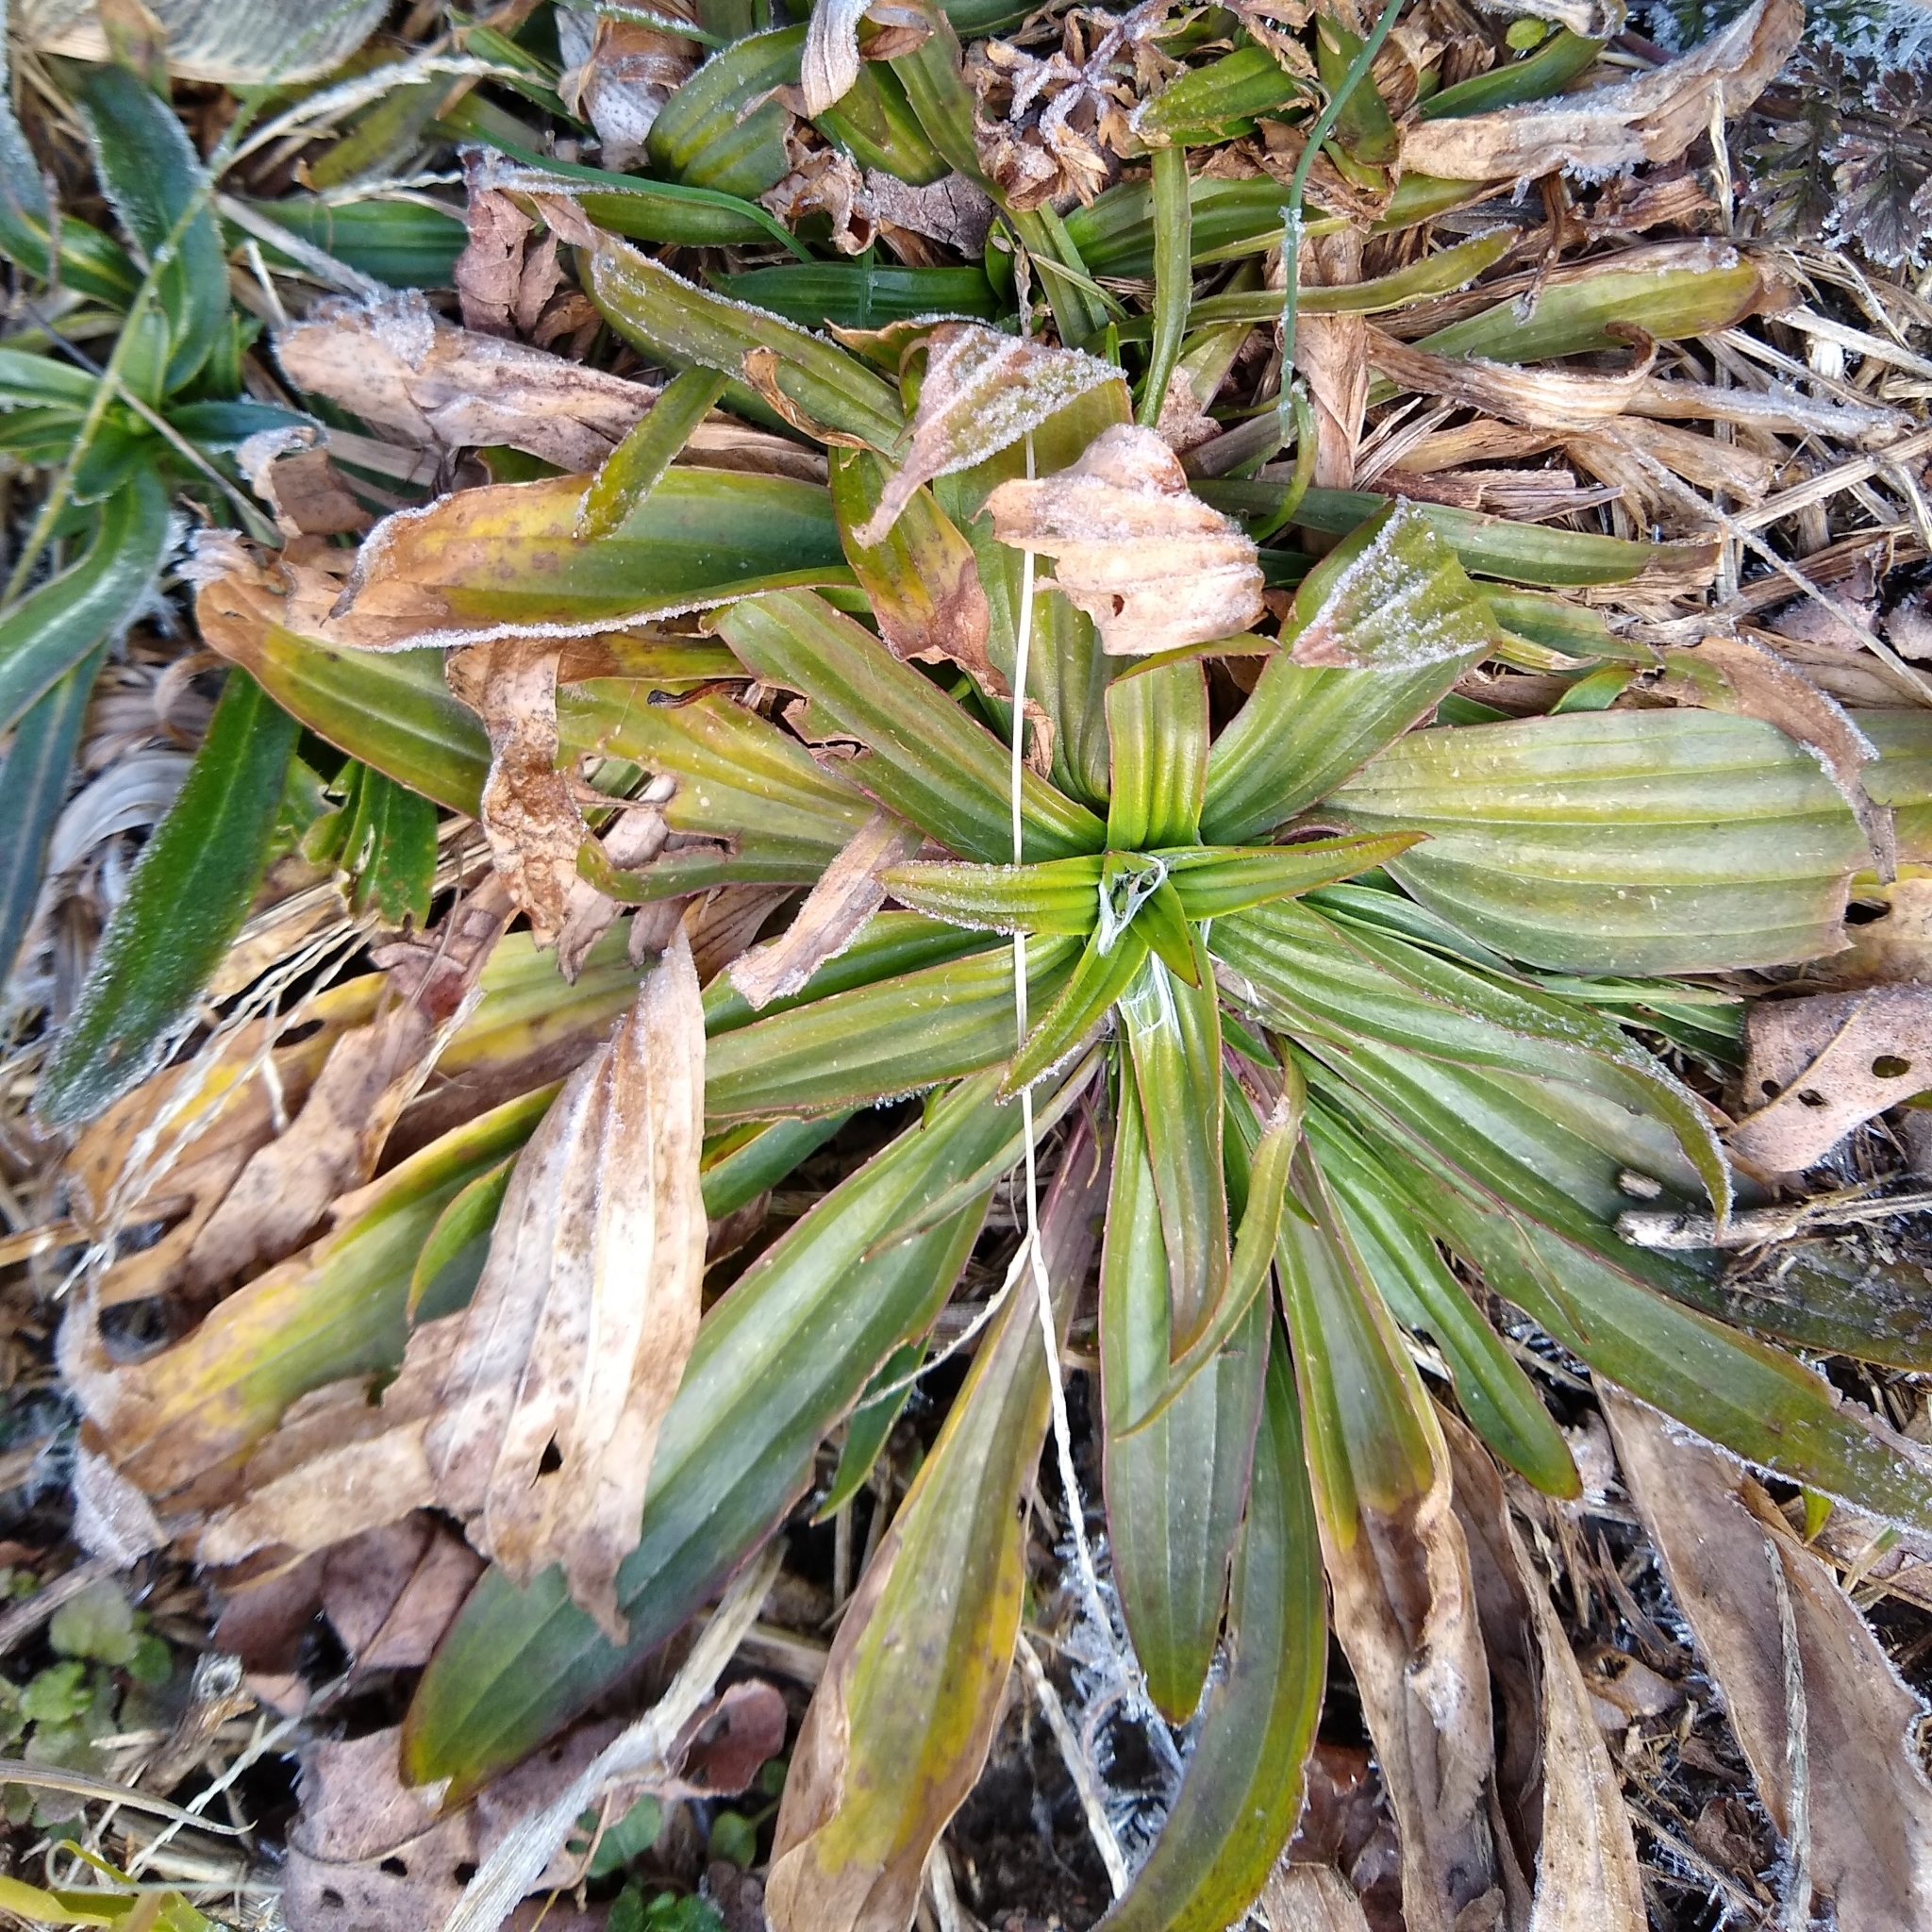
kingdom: Plantae
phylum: Tracheophyta
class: Magnoliopsida
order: Lamiales
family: Plantaginaceae
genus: Plantago
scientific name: Plantago lanceolata
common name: Ribwort plantain
